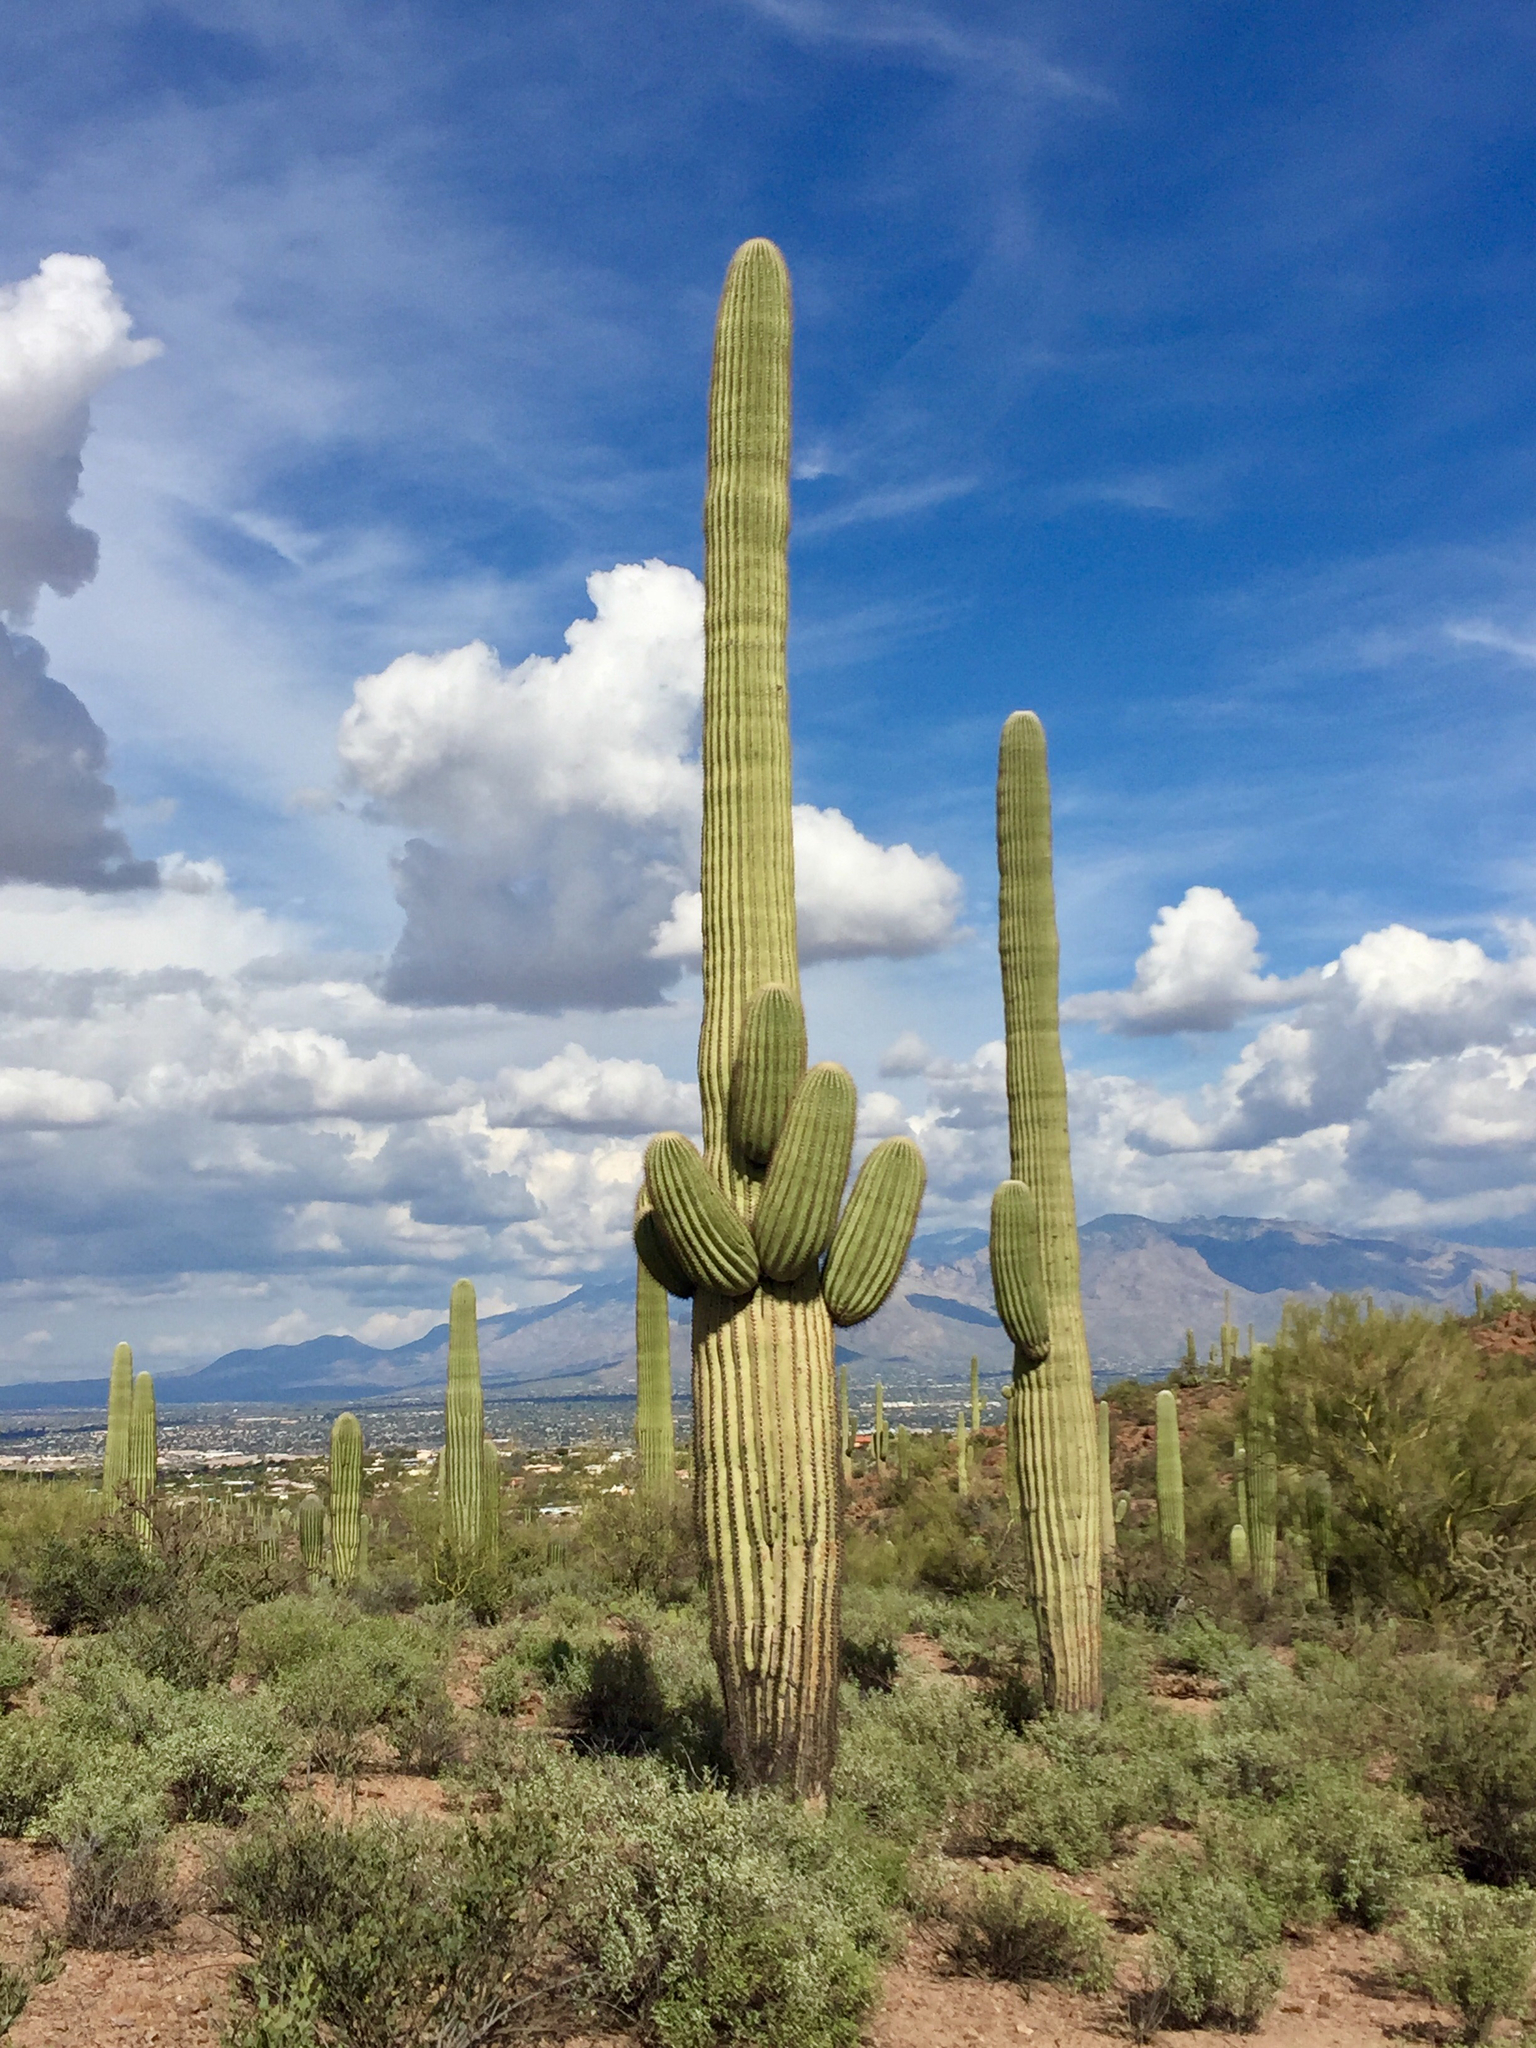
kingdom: Plantae
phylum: Tracheophyta
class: Magnoliopsida
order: Caryophyllales
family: Cactaceae
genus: Carnegiea
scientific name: Carnegiea gigantea
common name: Saguaro
